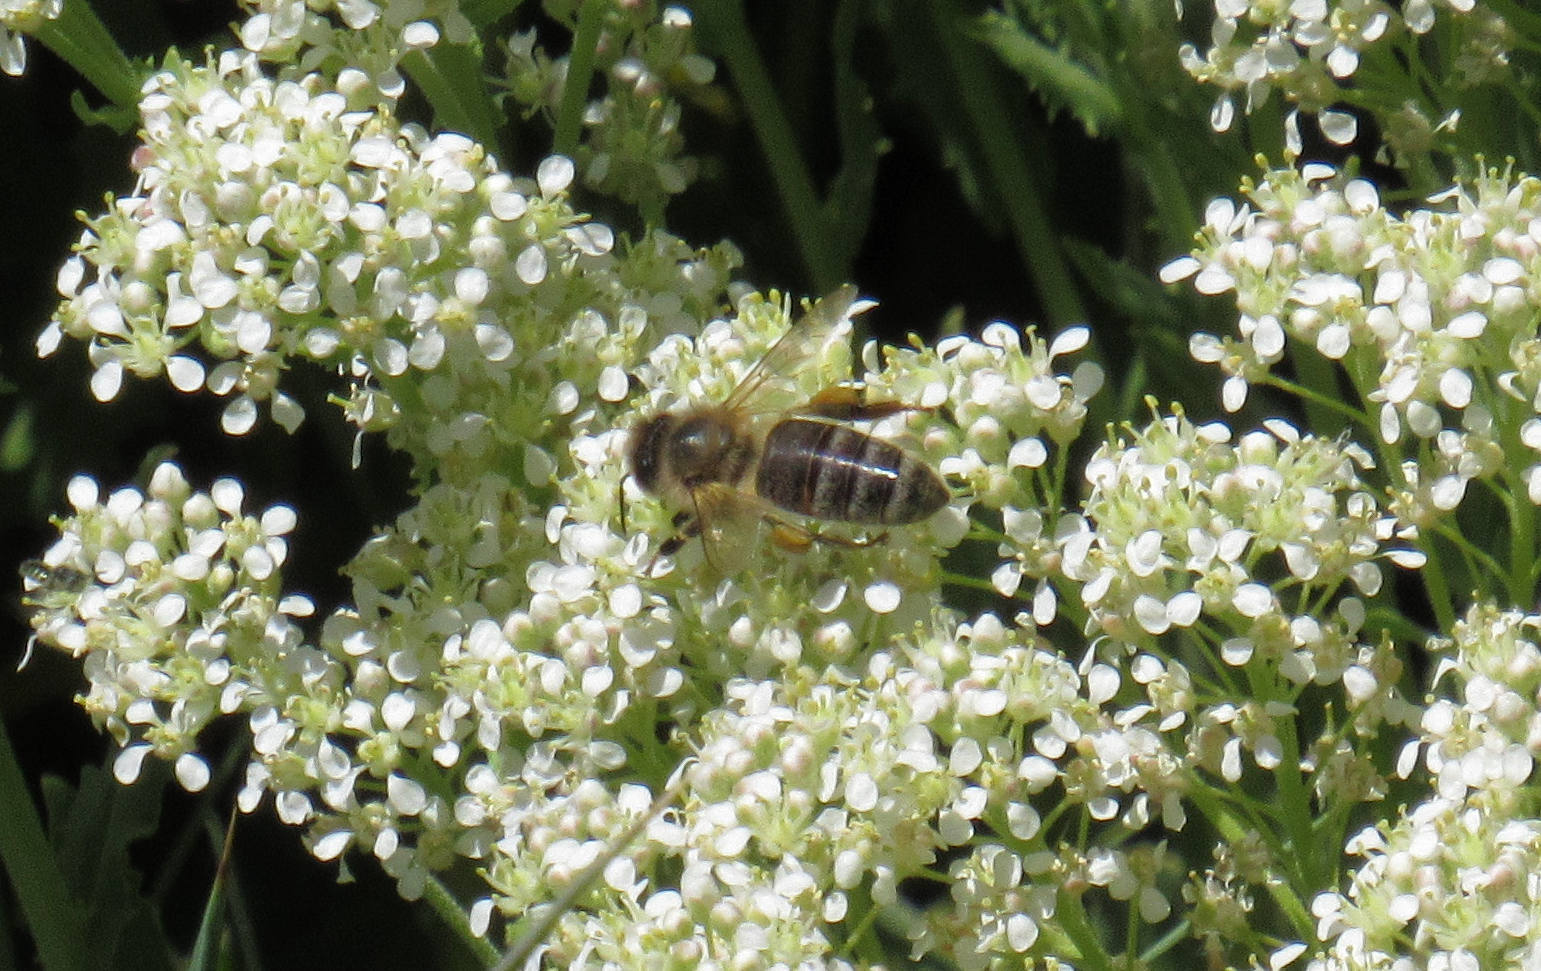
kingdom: Animalia
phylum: Arthropoda
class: Insecta
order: Hymenoptera
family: Apidae
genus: Apis
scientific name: Apis mellifera
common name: Honey bee
